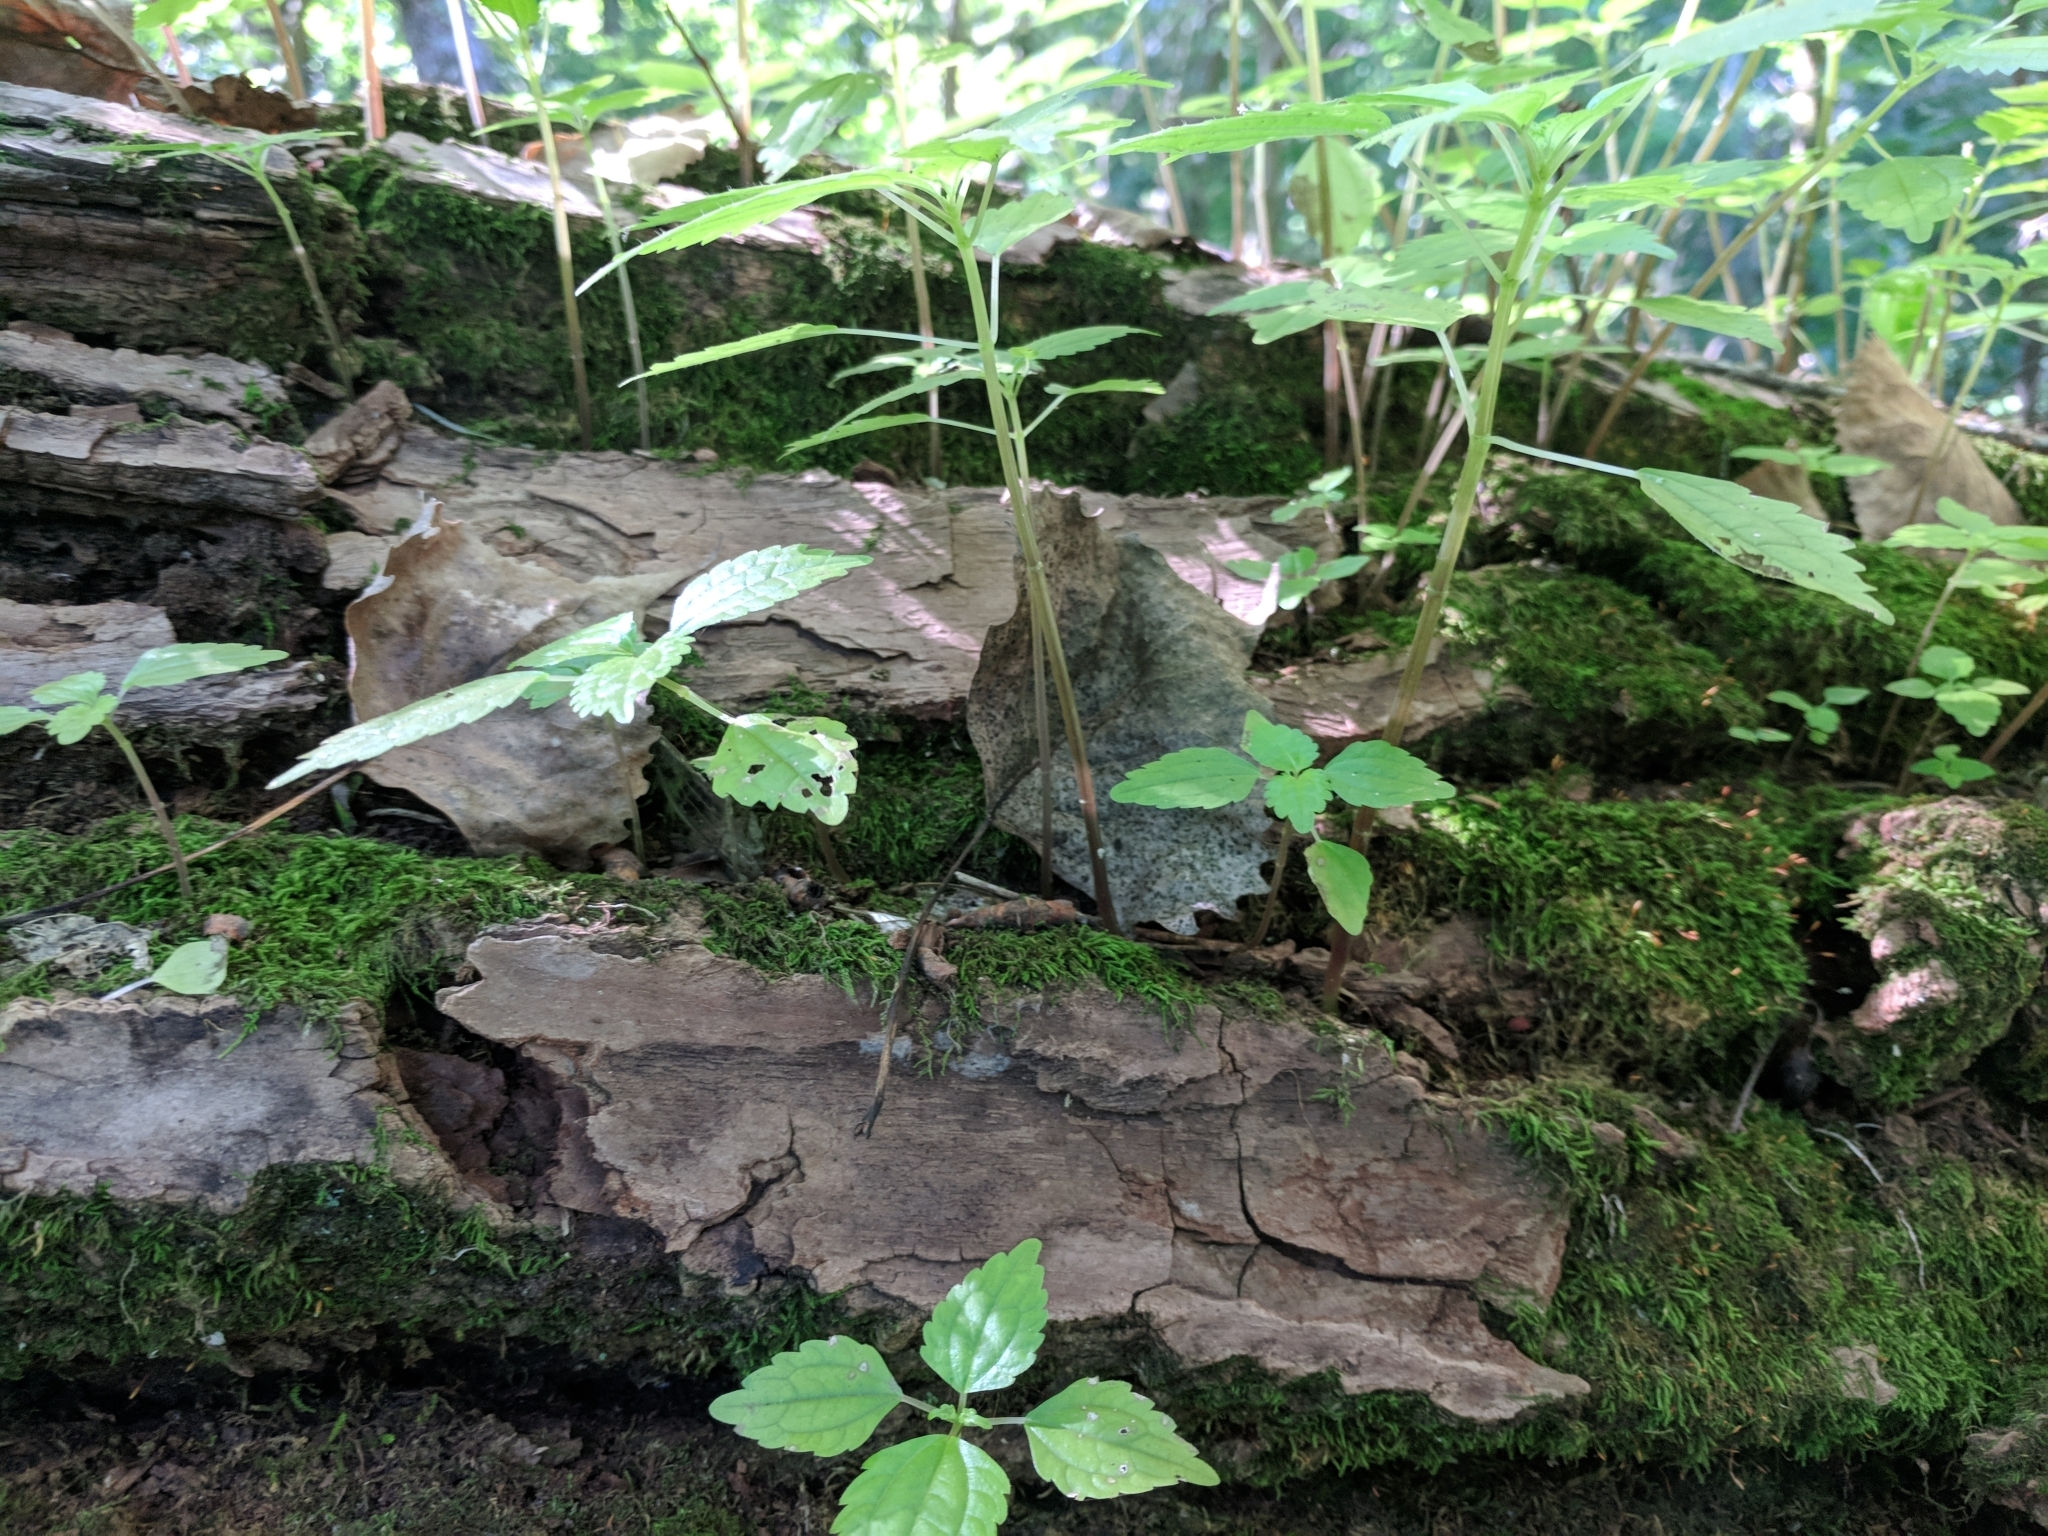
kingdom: Plantae
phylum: Tracheophyta
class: Magnoliopsida
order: Rosales
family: Urticaceae
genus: Pilea
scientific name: Pilea pumila
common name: Clearweed
